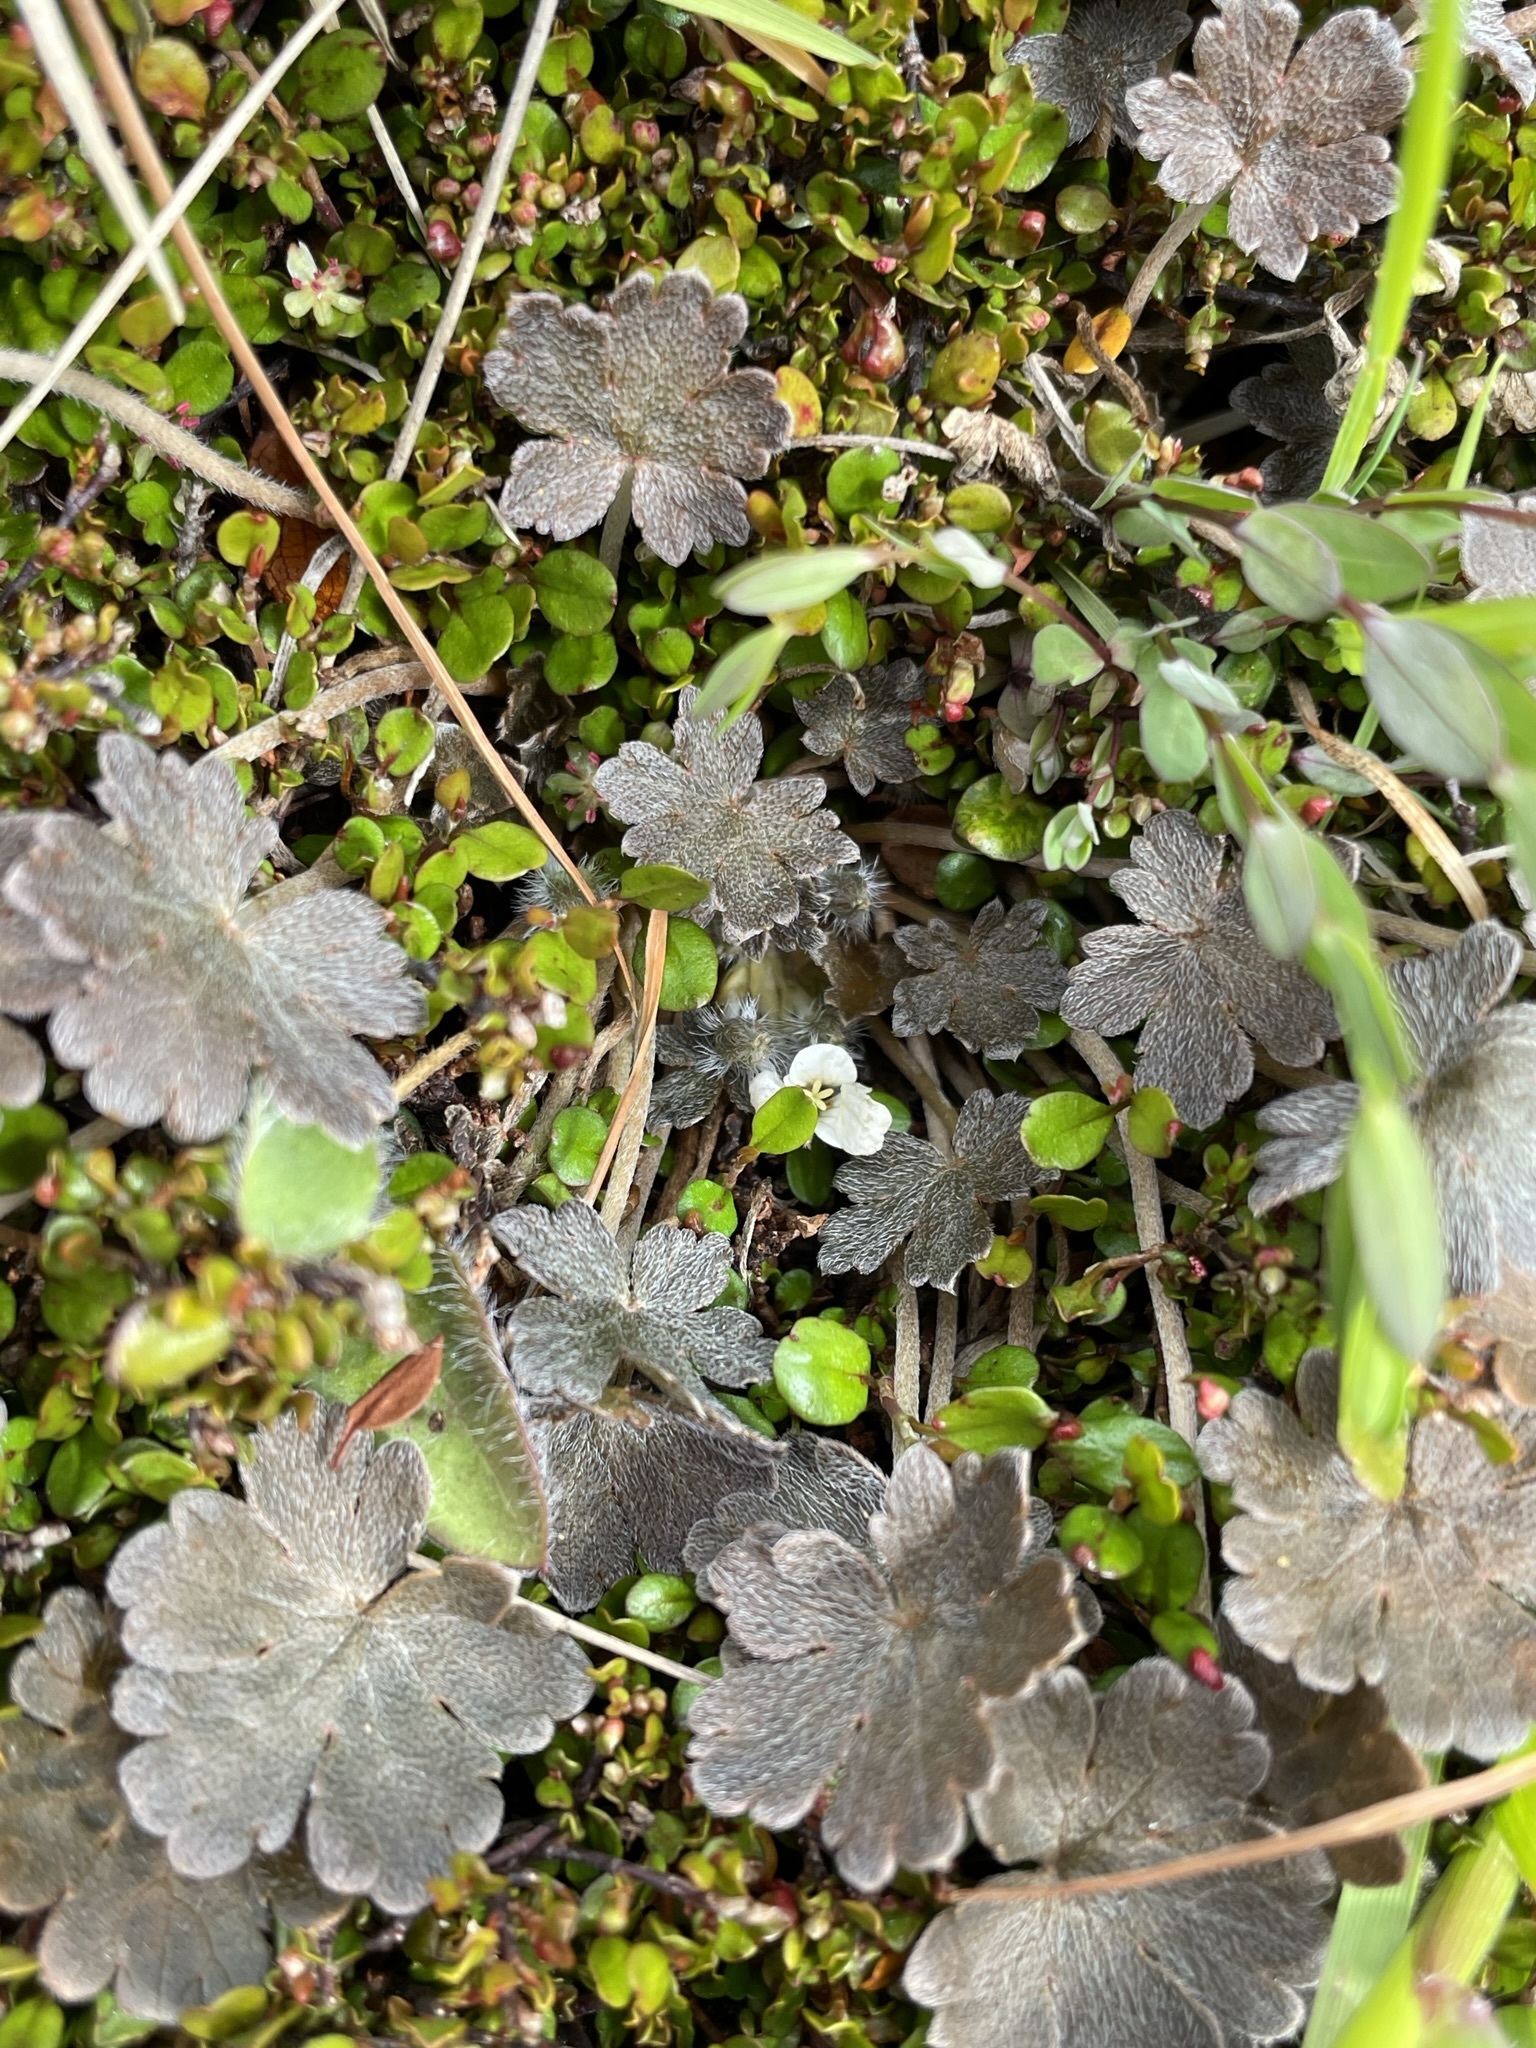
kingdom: Plantae
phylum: Tracheophyta
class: Magnoliopsida
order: Geraniales
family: Geraniaceae
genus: Geranium
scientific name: Geranium brevicaule
